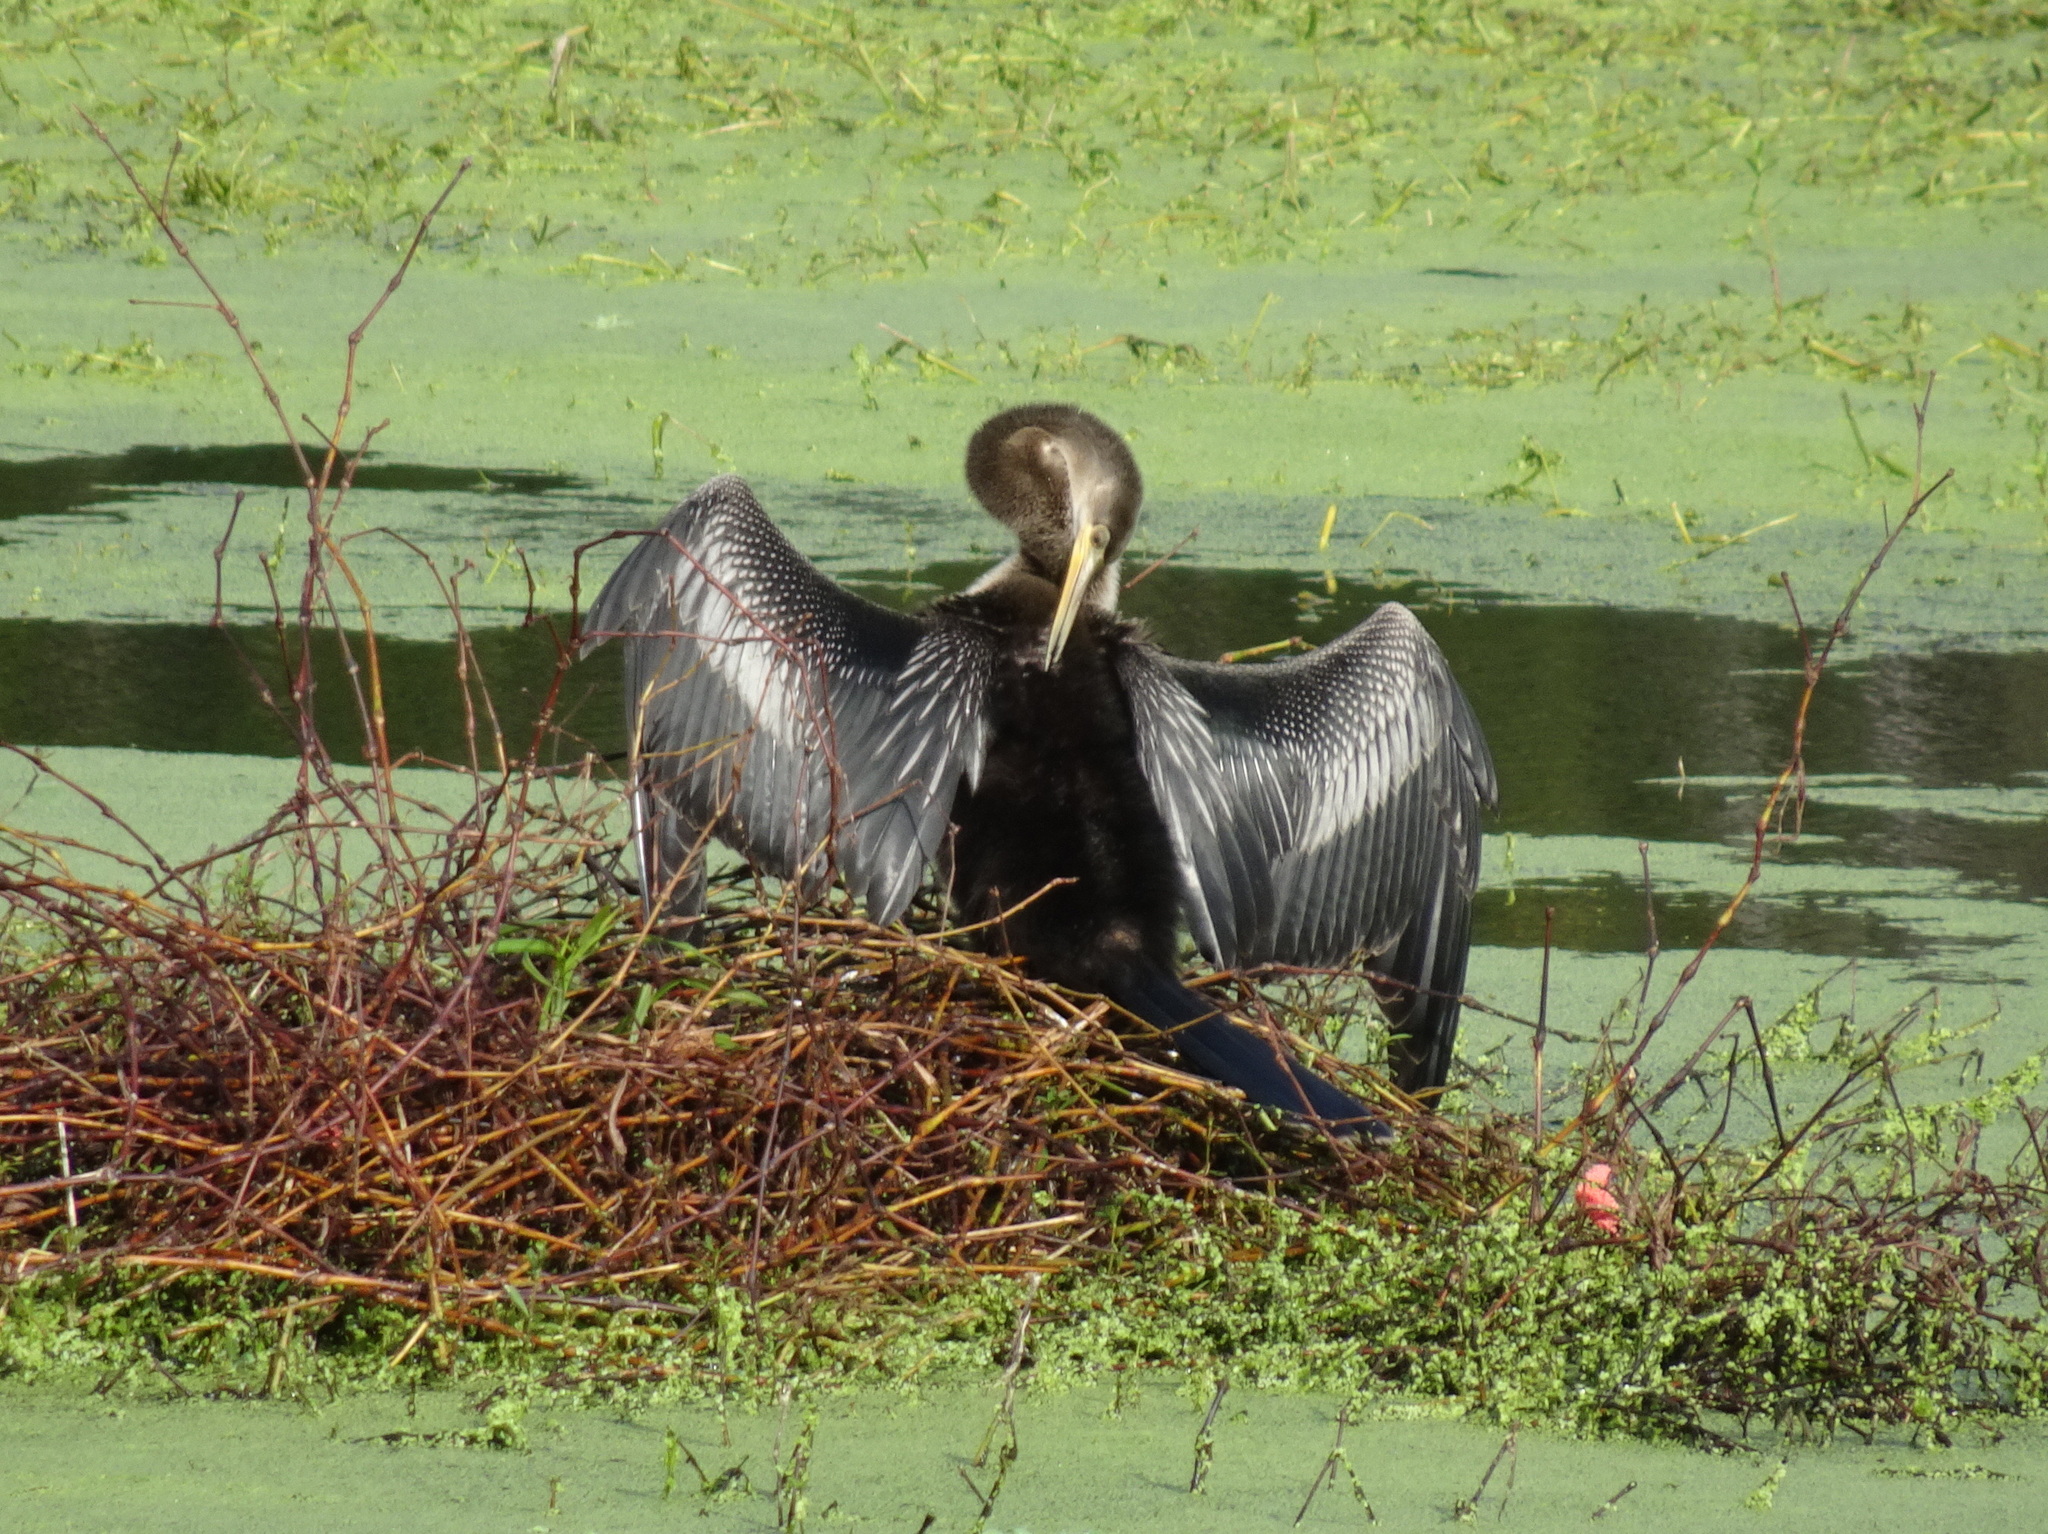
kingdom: Animalia
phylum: Chordata
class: Aves
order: Suliformes
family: Anhingidae
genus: Anhinga
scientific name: Anhinga anhinga
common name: Anhinga
